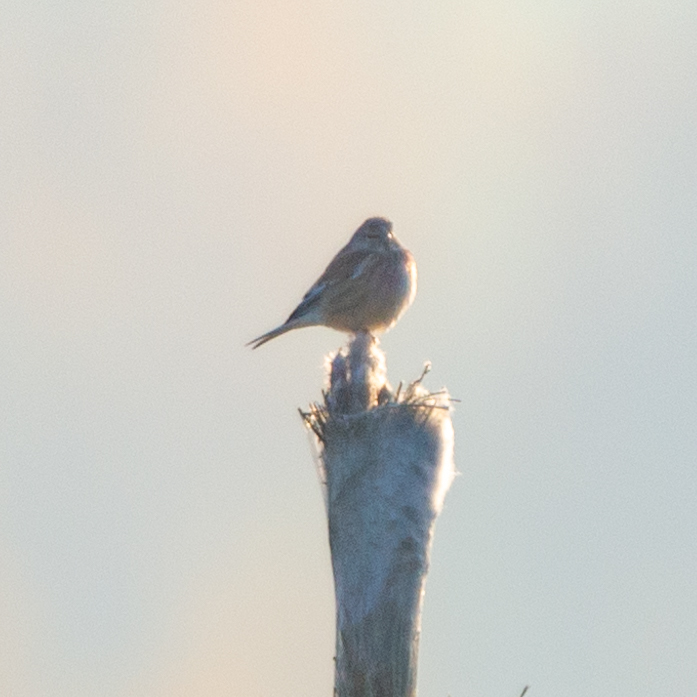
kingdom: Animalia
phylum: Chordata
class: Aves
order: Passeriformes
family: Fringillidae
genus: Linaria
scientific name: Linaria cannabina
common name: Common linnet
